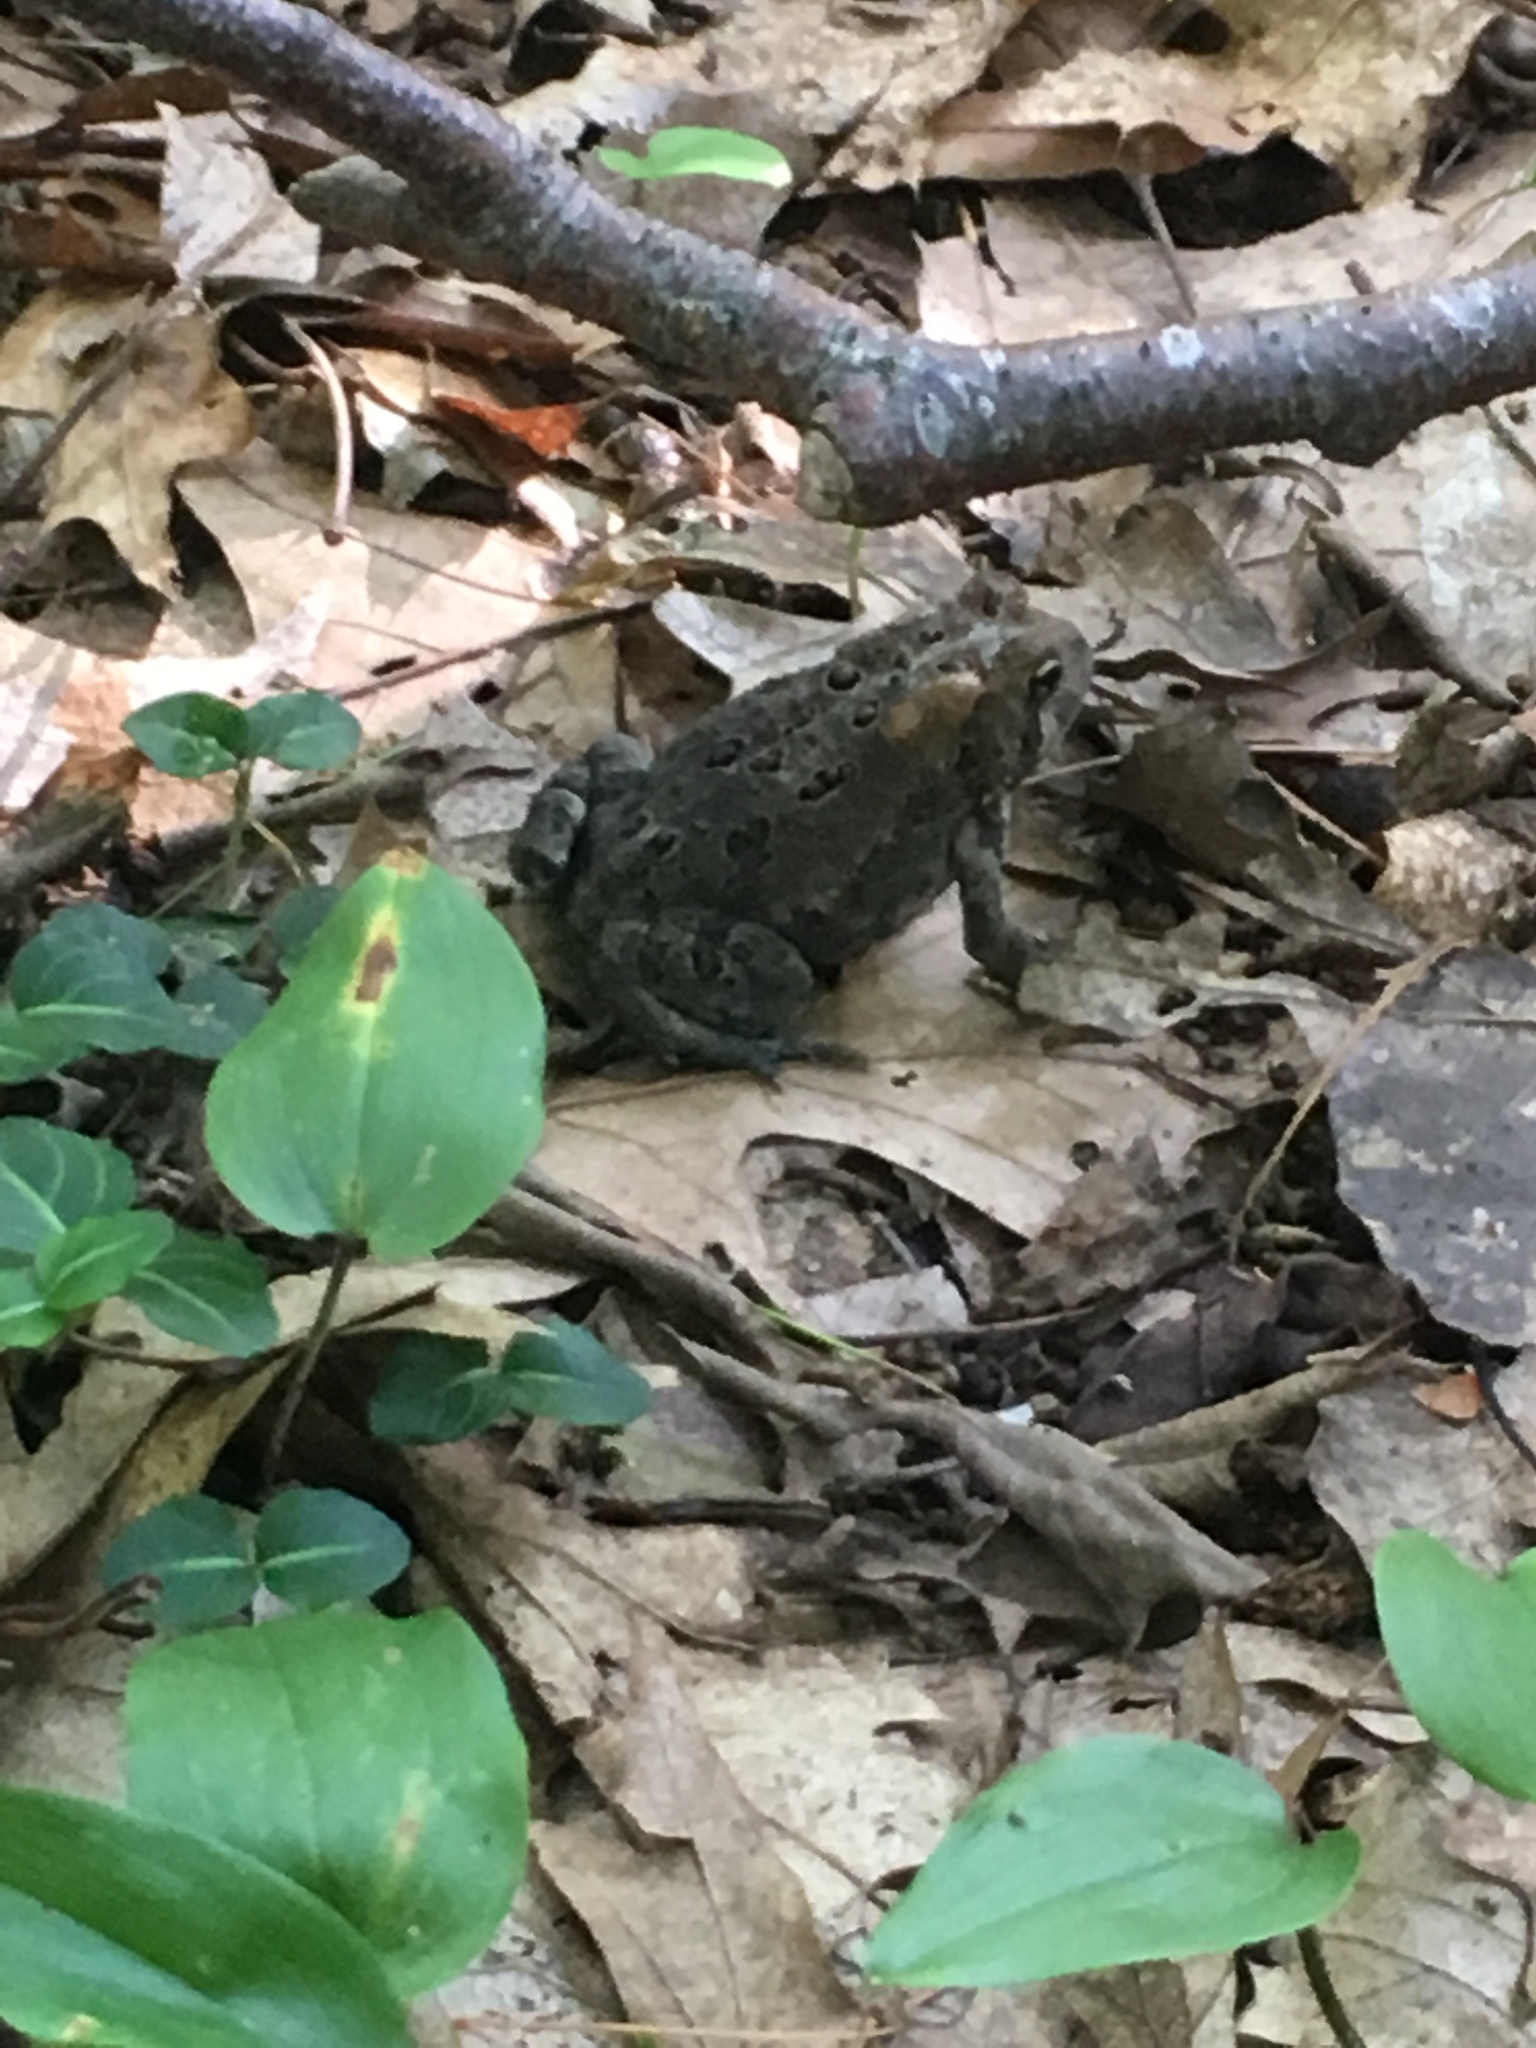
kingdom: Animalia
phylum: Chordata
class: Amphibia
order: Anura
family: Bufonidae
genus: Anaxyrus
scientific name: Anaxyrus americanus
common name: American toad
